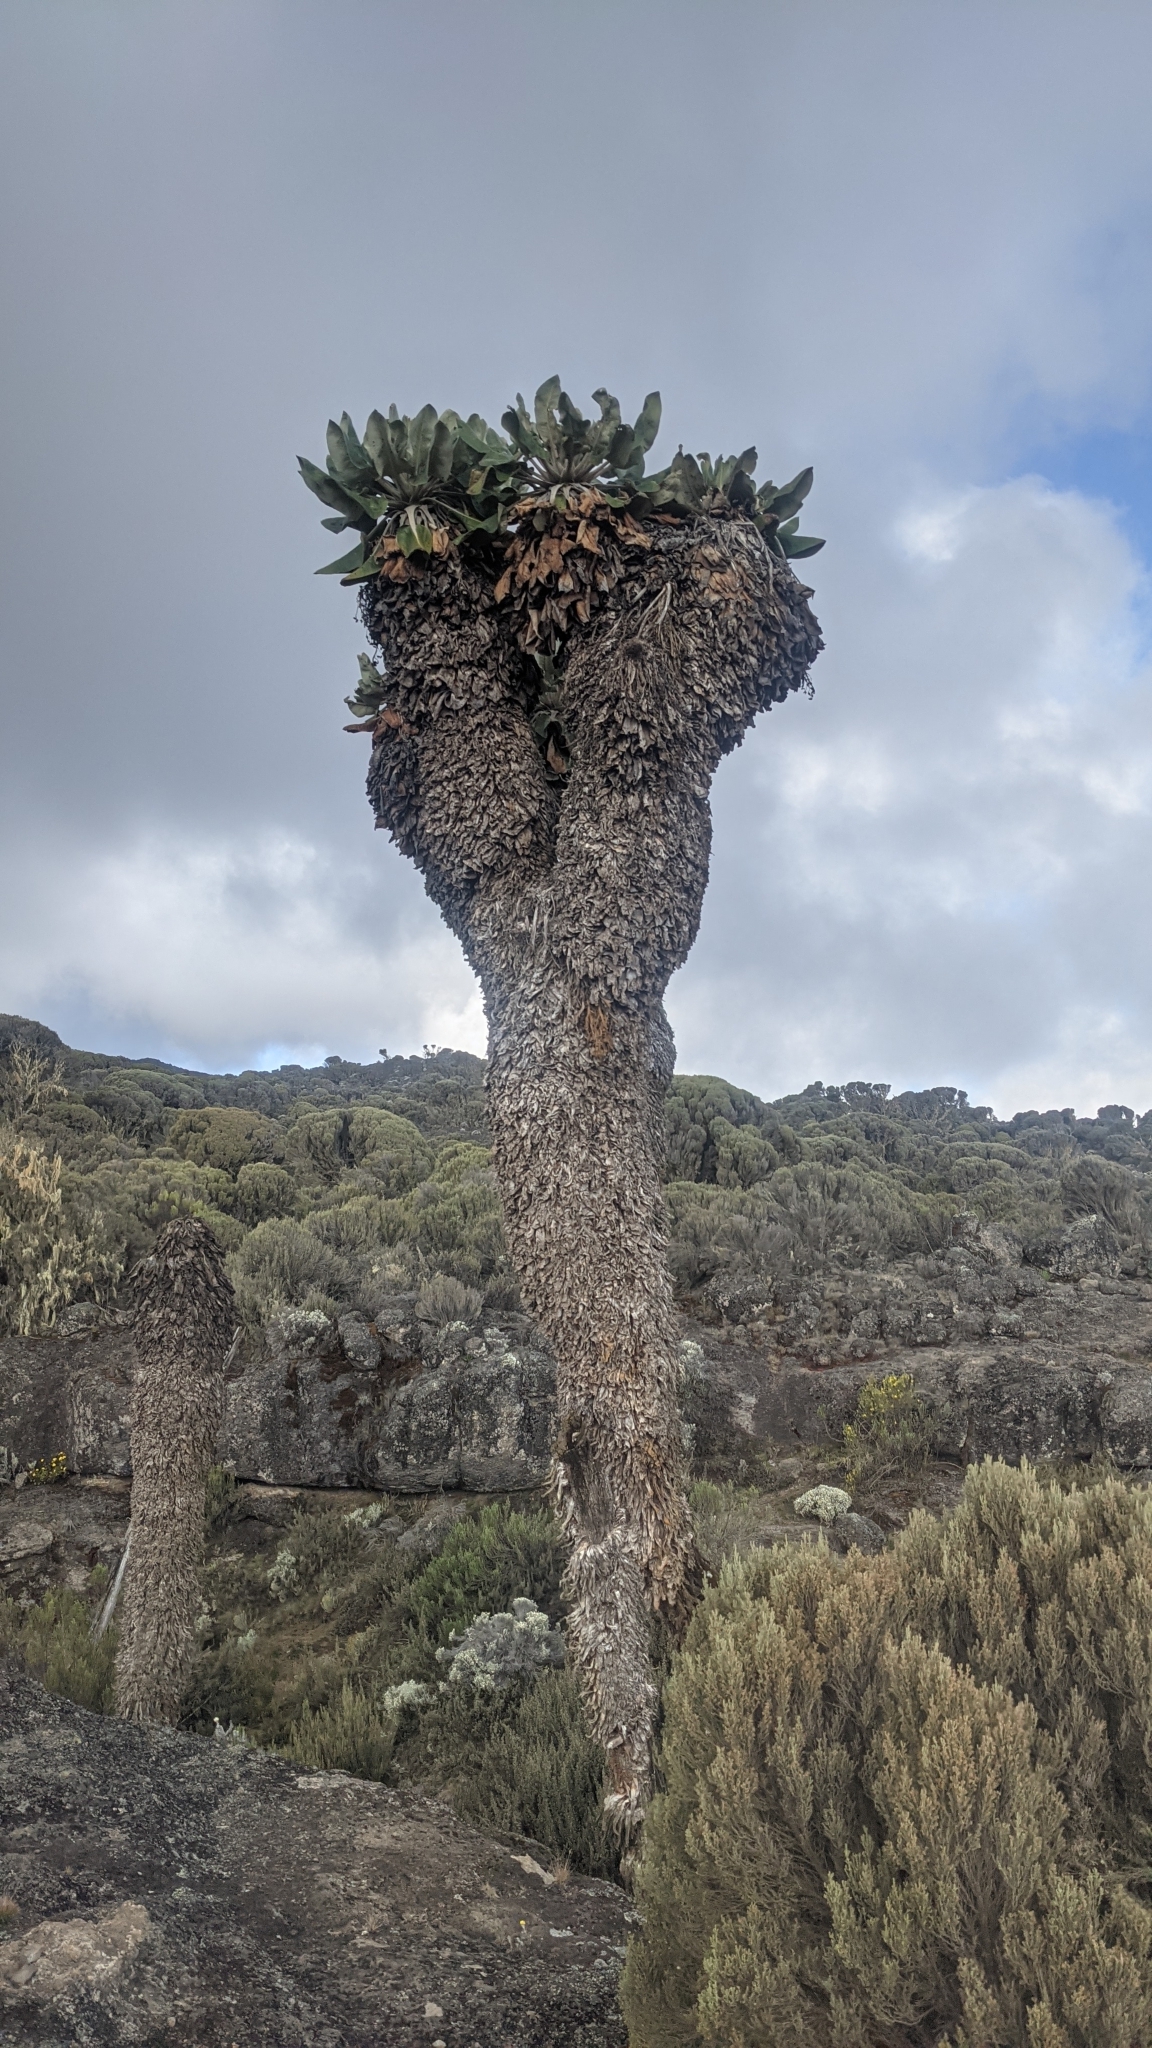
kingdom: Plantae
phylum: Tracheophyta
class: Magnoliopsida
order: Asterales
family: Asteraceae
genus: Dendrosenecio
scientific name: Dendrosenecio kilimanjari
